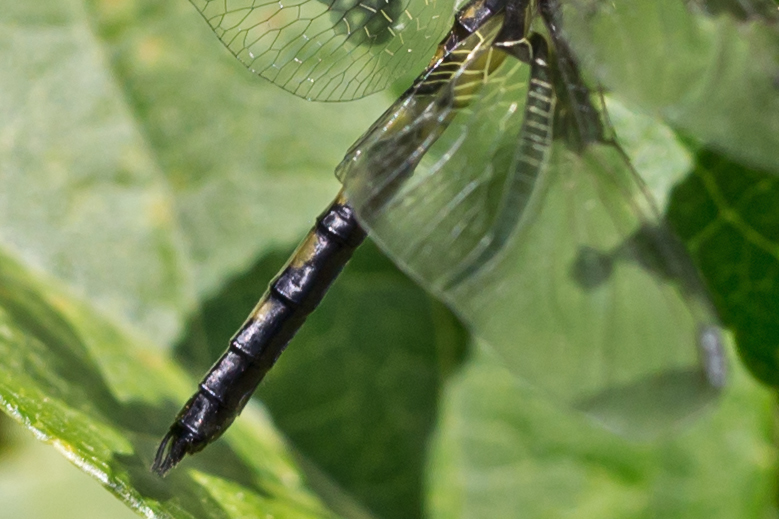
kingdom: Animalia
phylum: Arthropoda
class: Insecta
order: Odonata
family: Libellulidae
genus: Celithemis
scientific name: Celithemis fasciata
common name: Banded pennant
